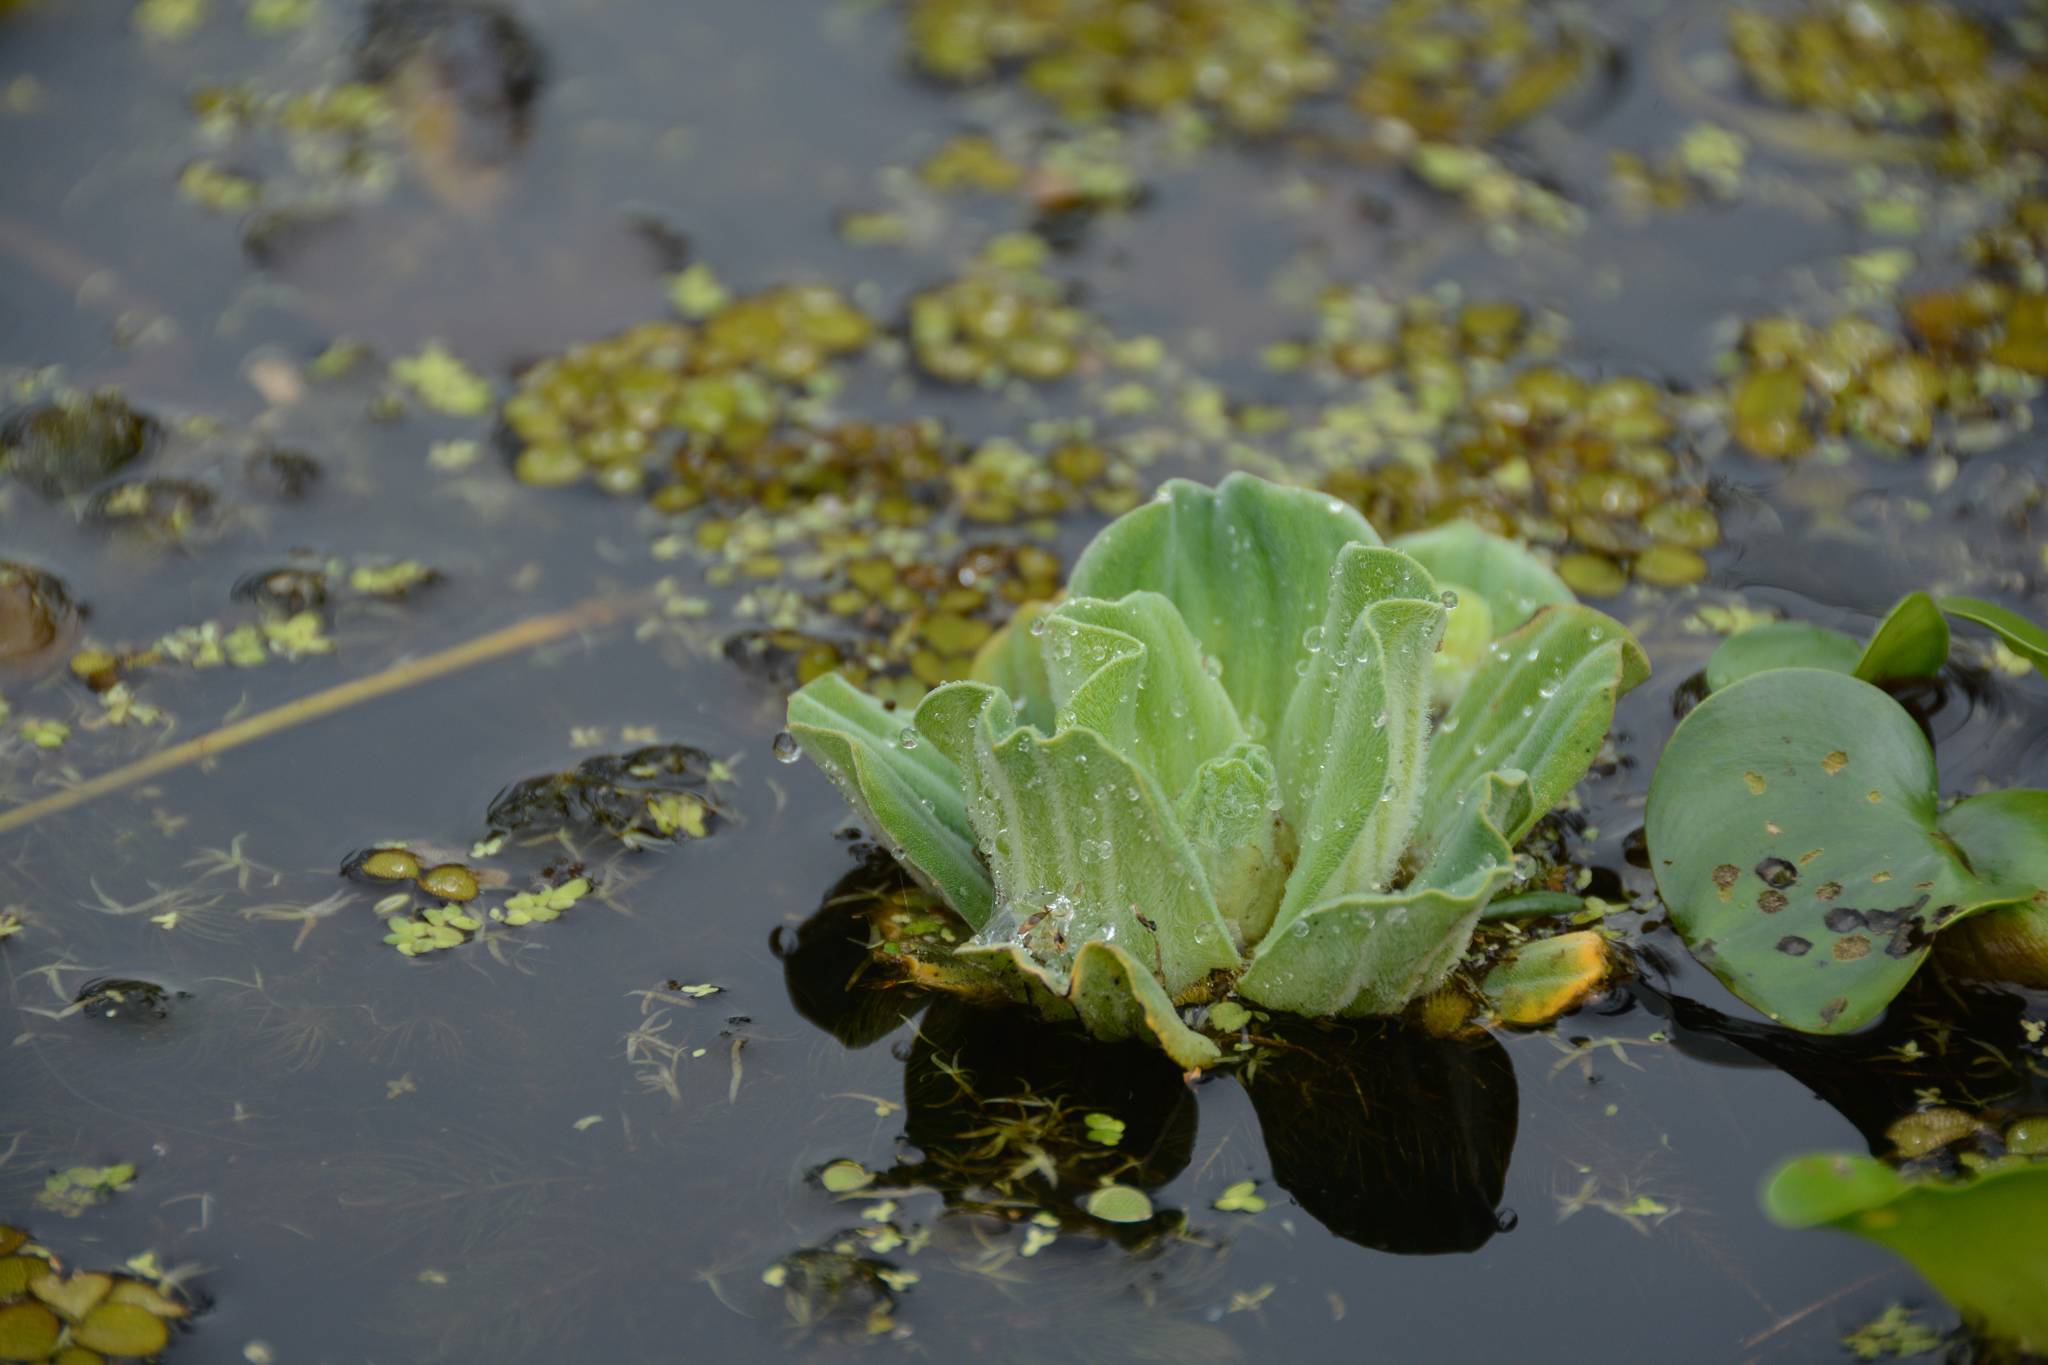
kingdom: Plantae
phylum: Tracheophyta
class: Liliopsida
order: Alismatales
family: Araceae
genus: Pistia
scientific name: Pistia stratiotes
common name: Water lettuce
